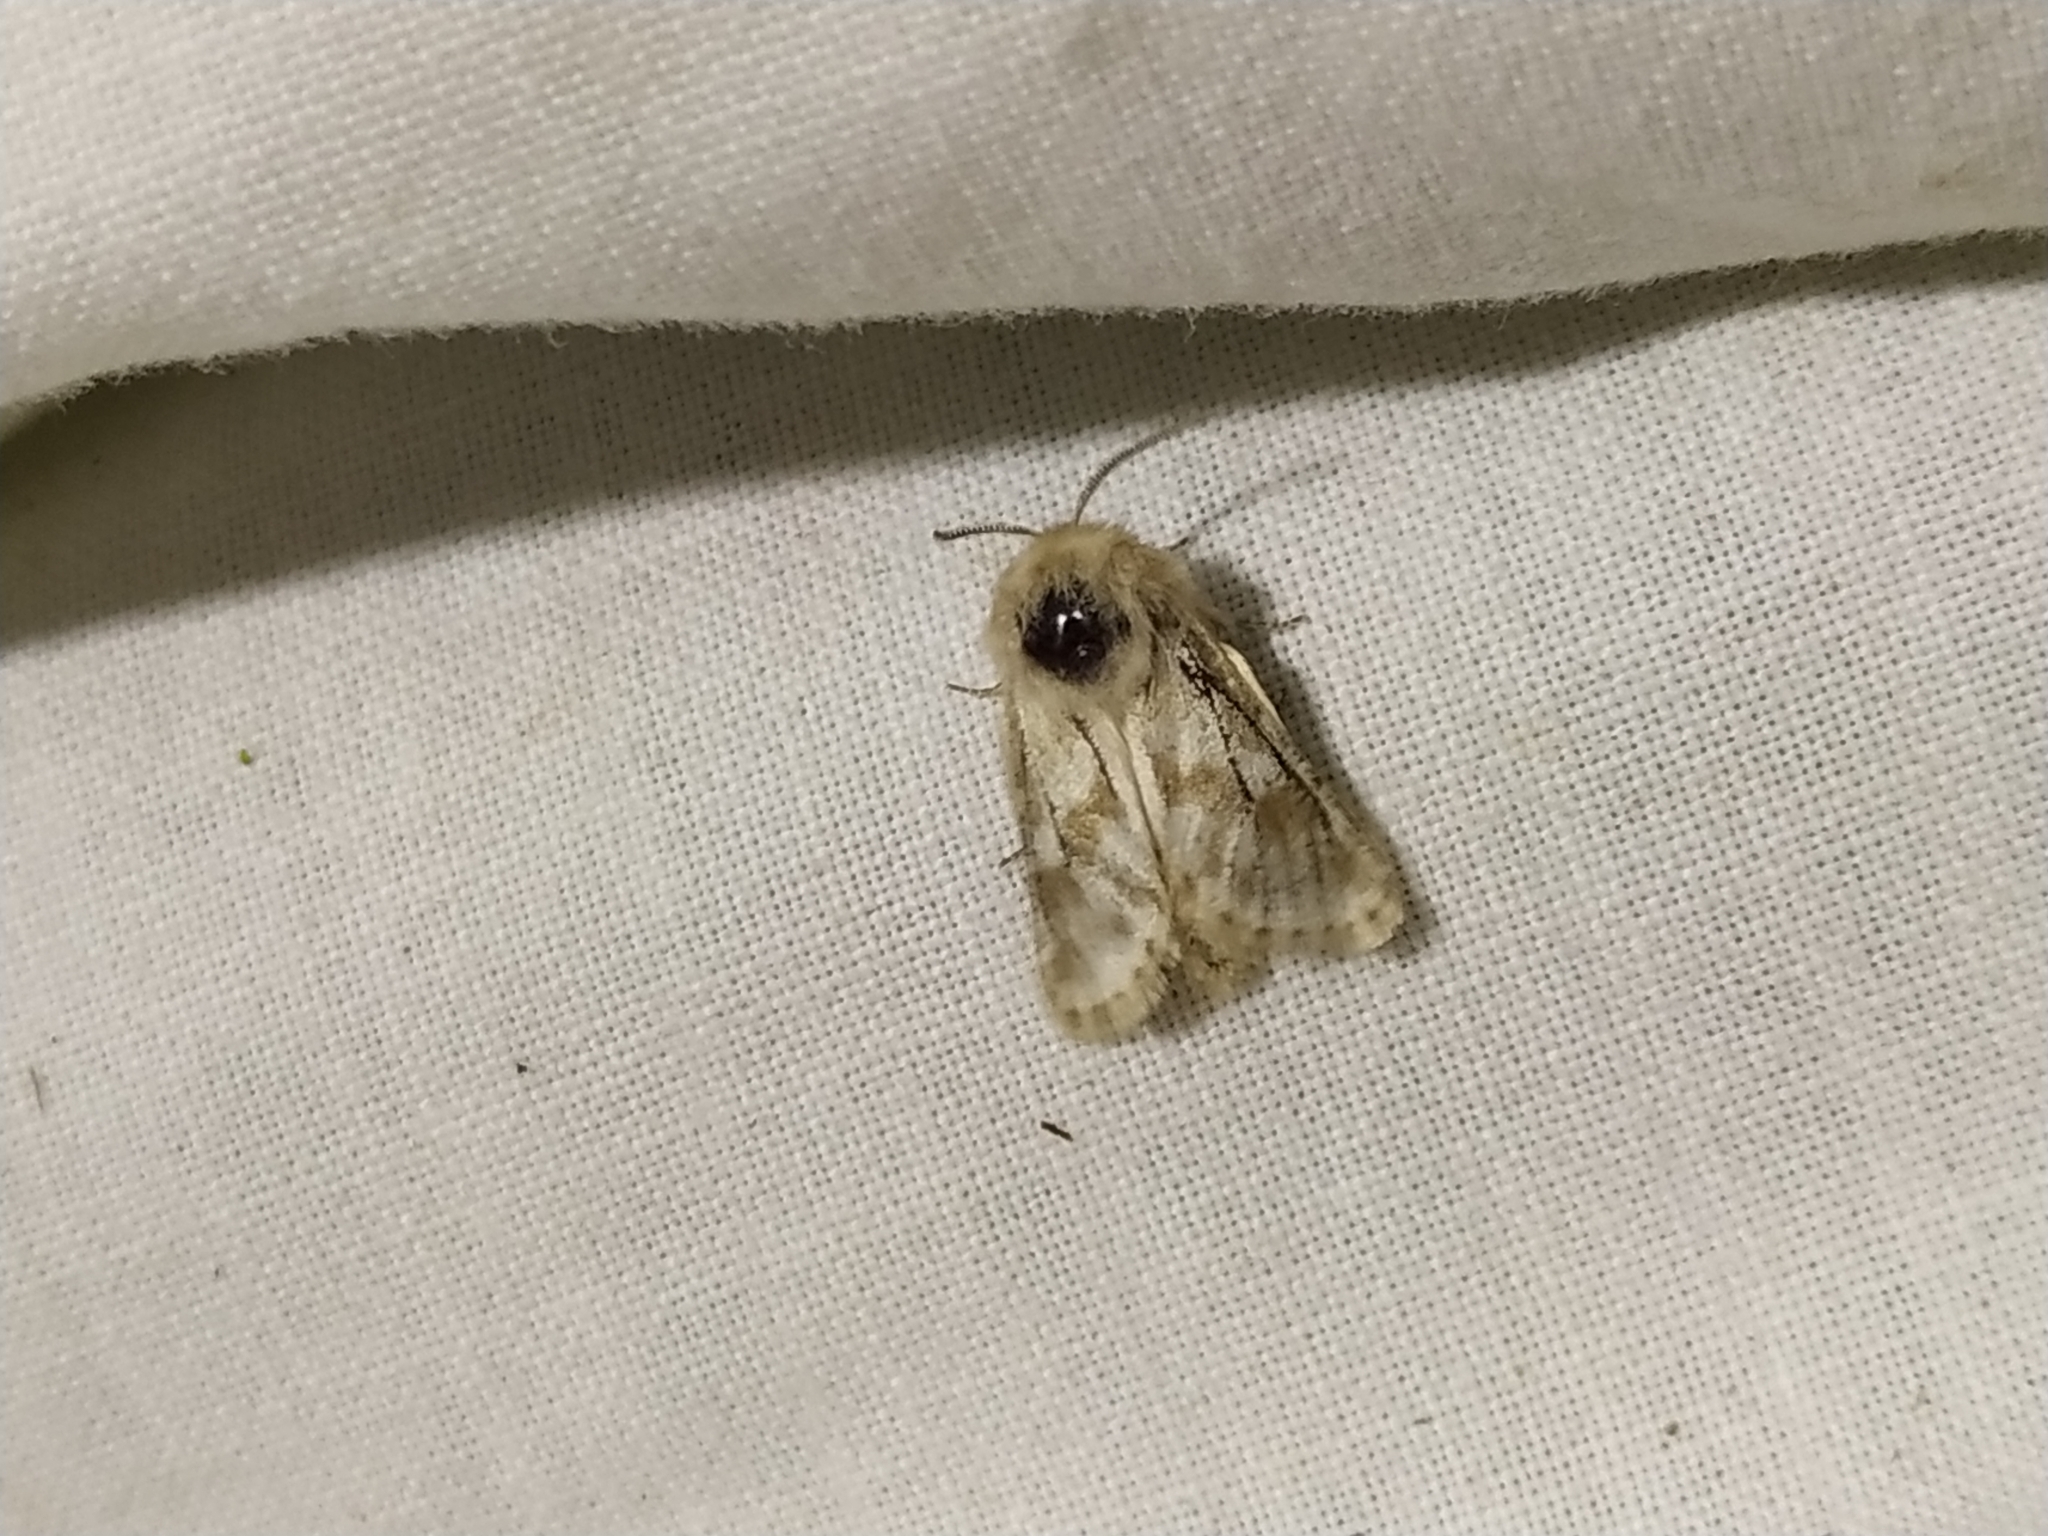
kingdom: Animalia
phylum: Arthropoda
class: Insecta
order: Lepidoptera
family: Cossidae
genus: Dyspessa
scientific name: Dyspessa ulula
